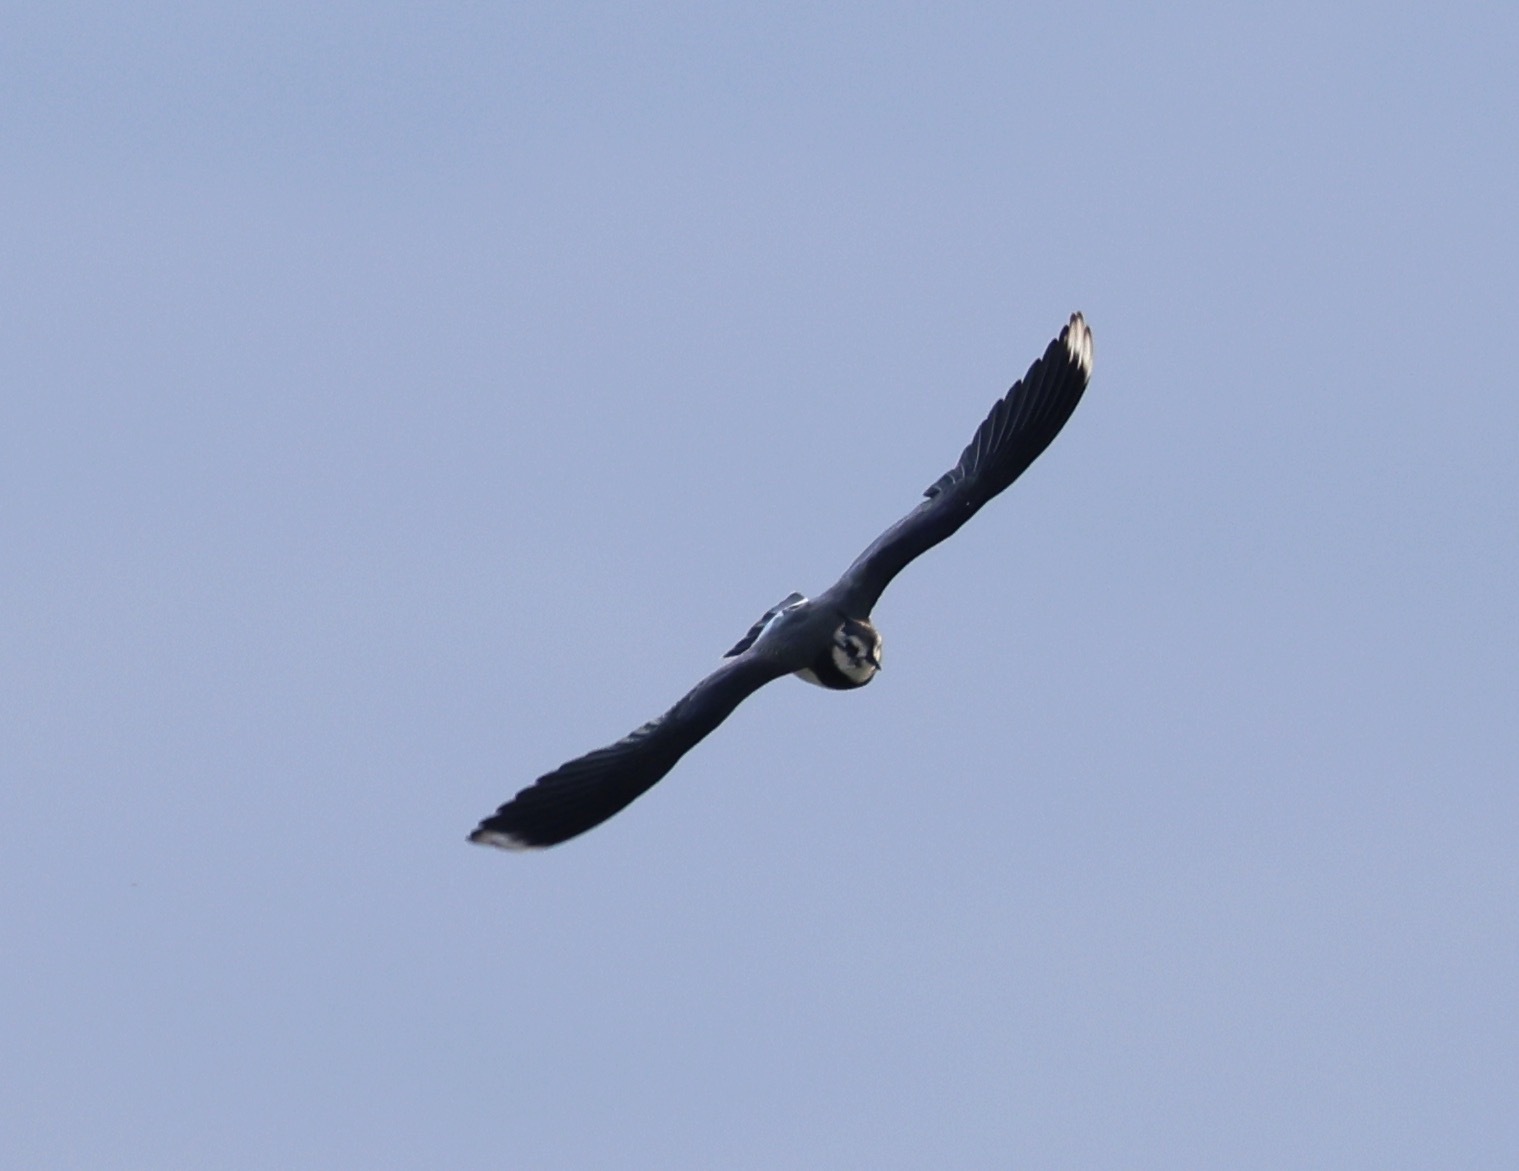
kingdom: Animalia
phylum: Chordata
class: Aves
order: Charadriiformes
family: Charadriidae
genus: Vanellus
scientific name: Vanellus vanellus
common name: Northern lapwing
